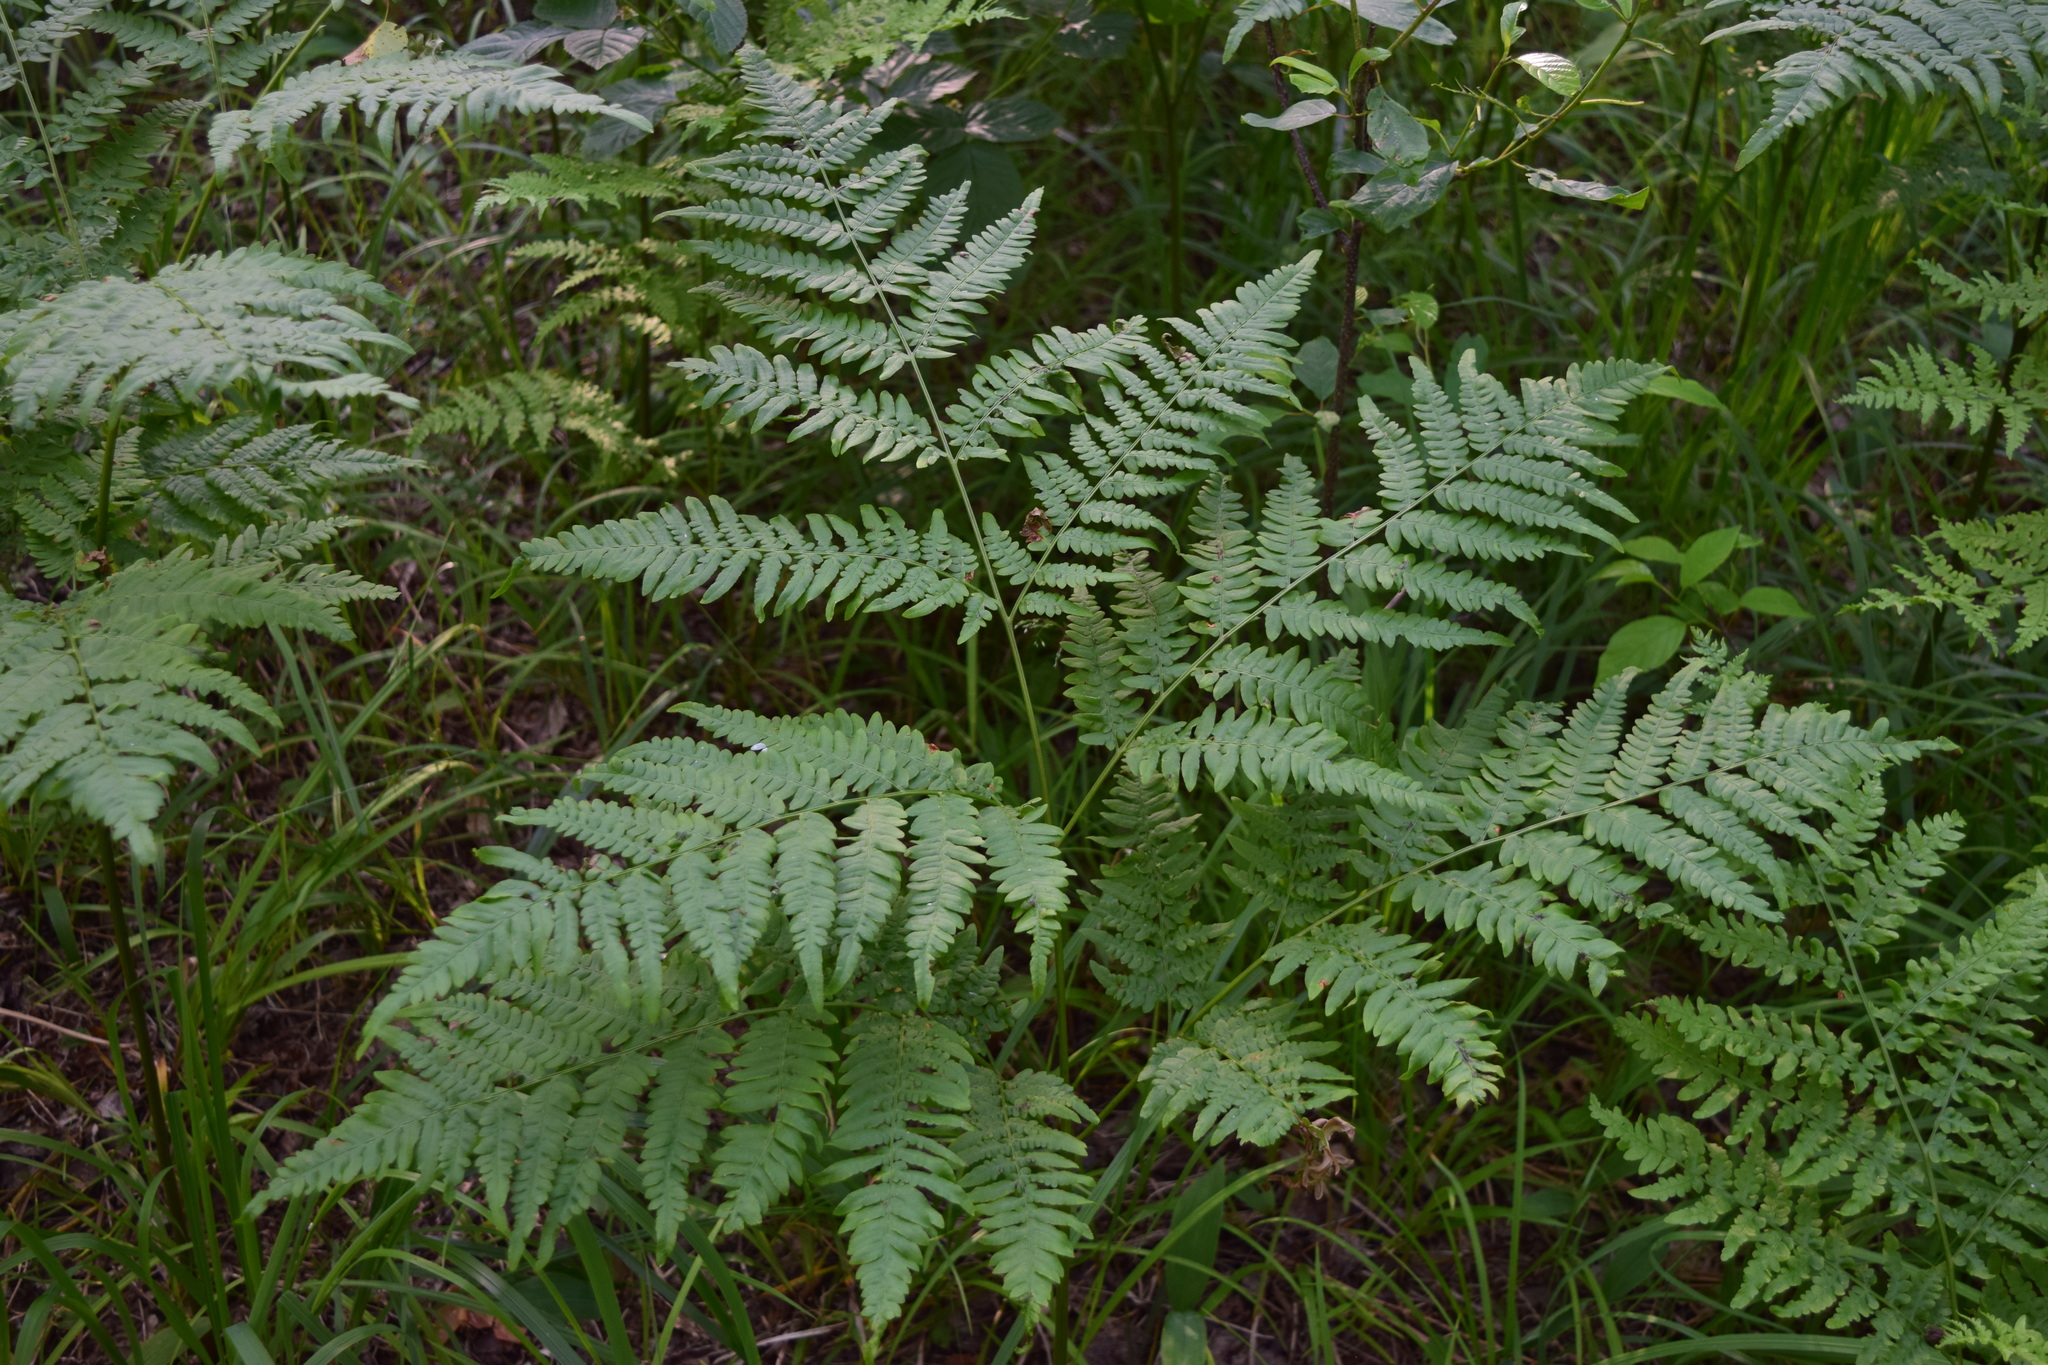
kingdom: Plantae
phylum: Tracheophyta
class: Polypodiopsida
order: Polypodiales
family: Dennstaedtiaceae
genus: Pteridium
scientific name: Pteridium aquilinum
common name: Bracken
